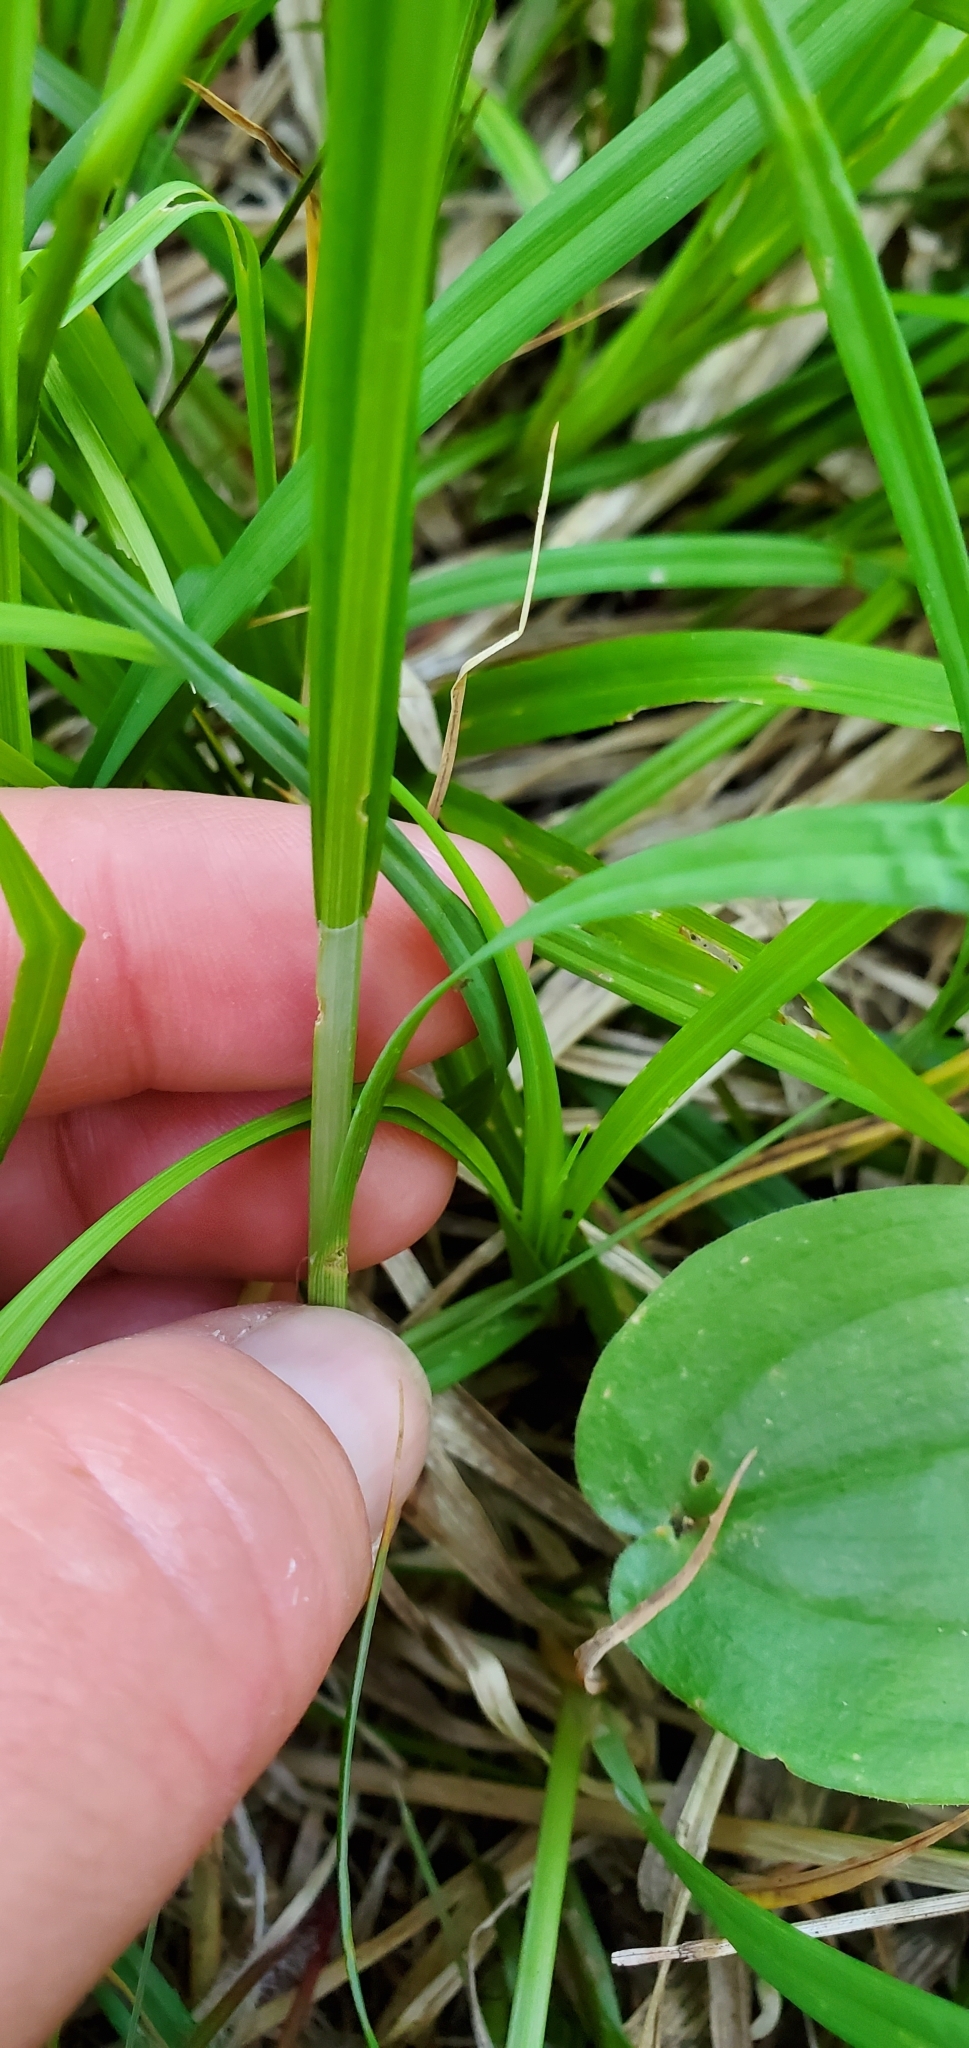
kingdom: Plantae
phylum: Tracheophyta
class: Liliopsida
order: Poales
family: Cyperaceae
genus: Carex
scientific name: Carex atratiformis
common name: Black sedge
